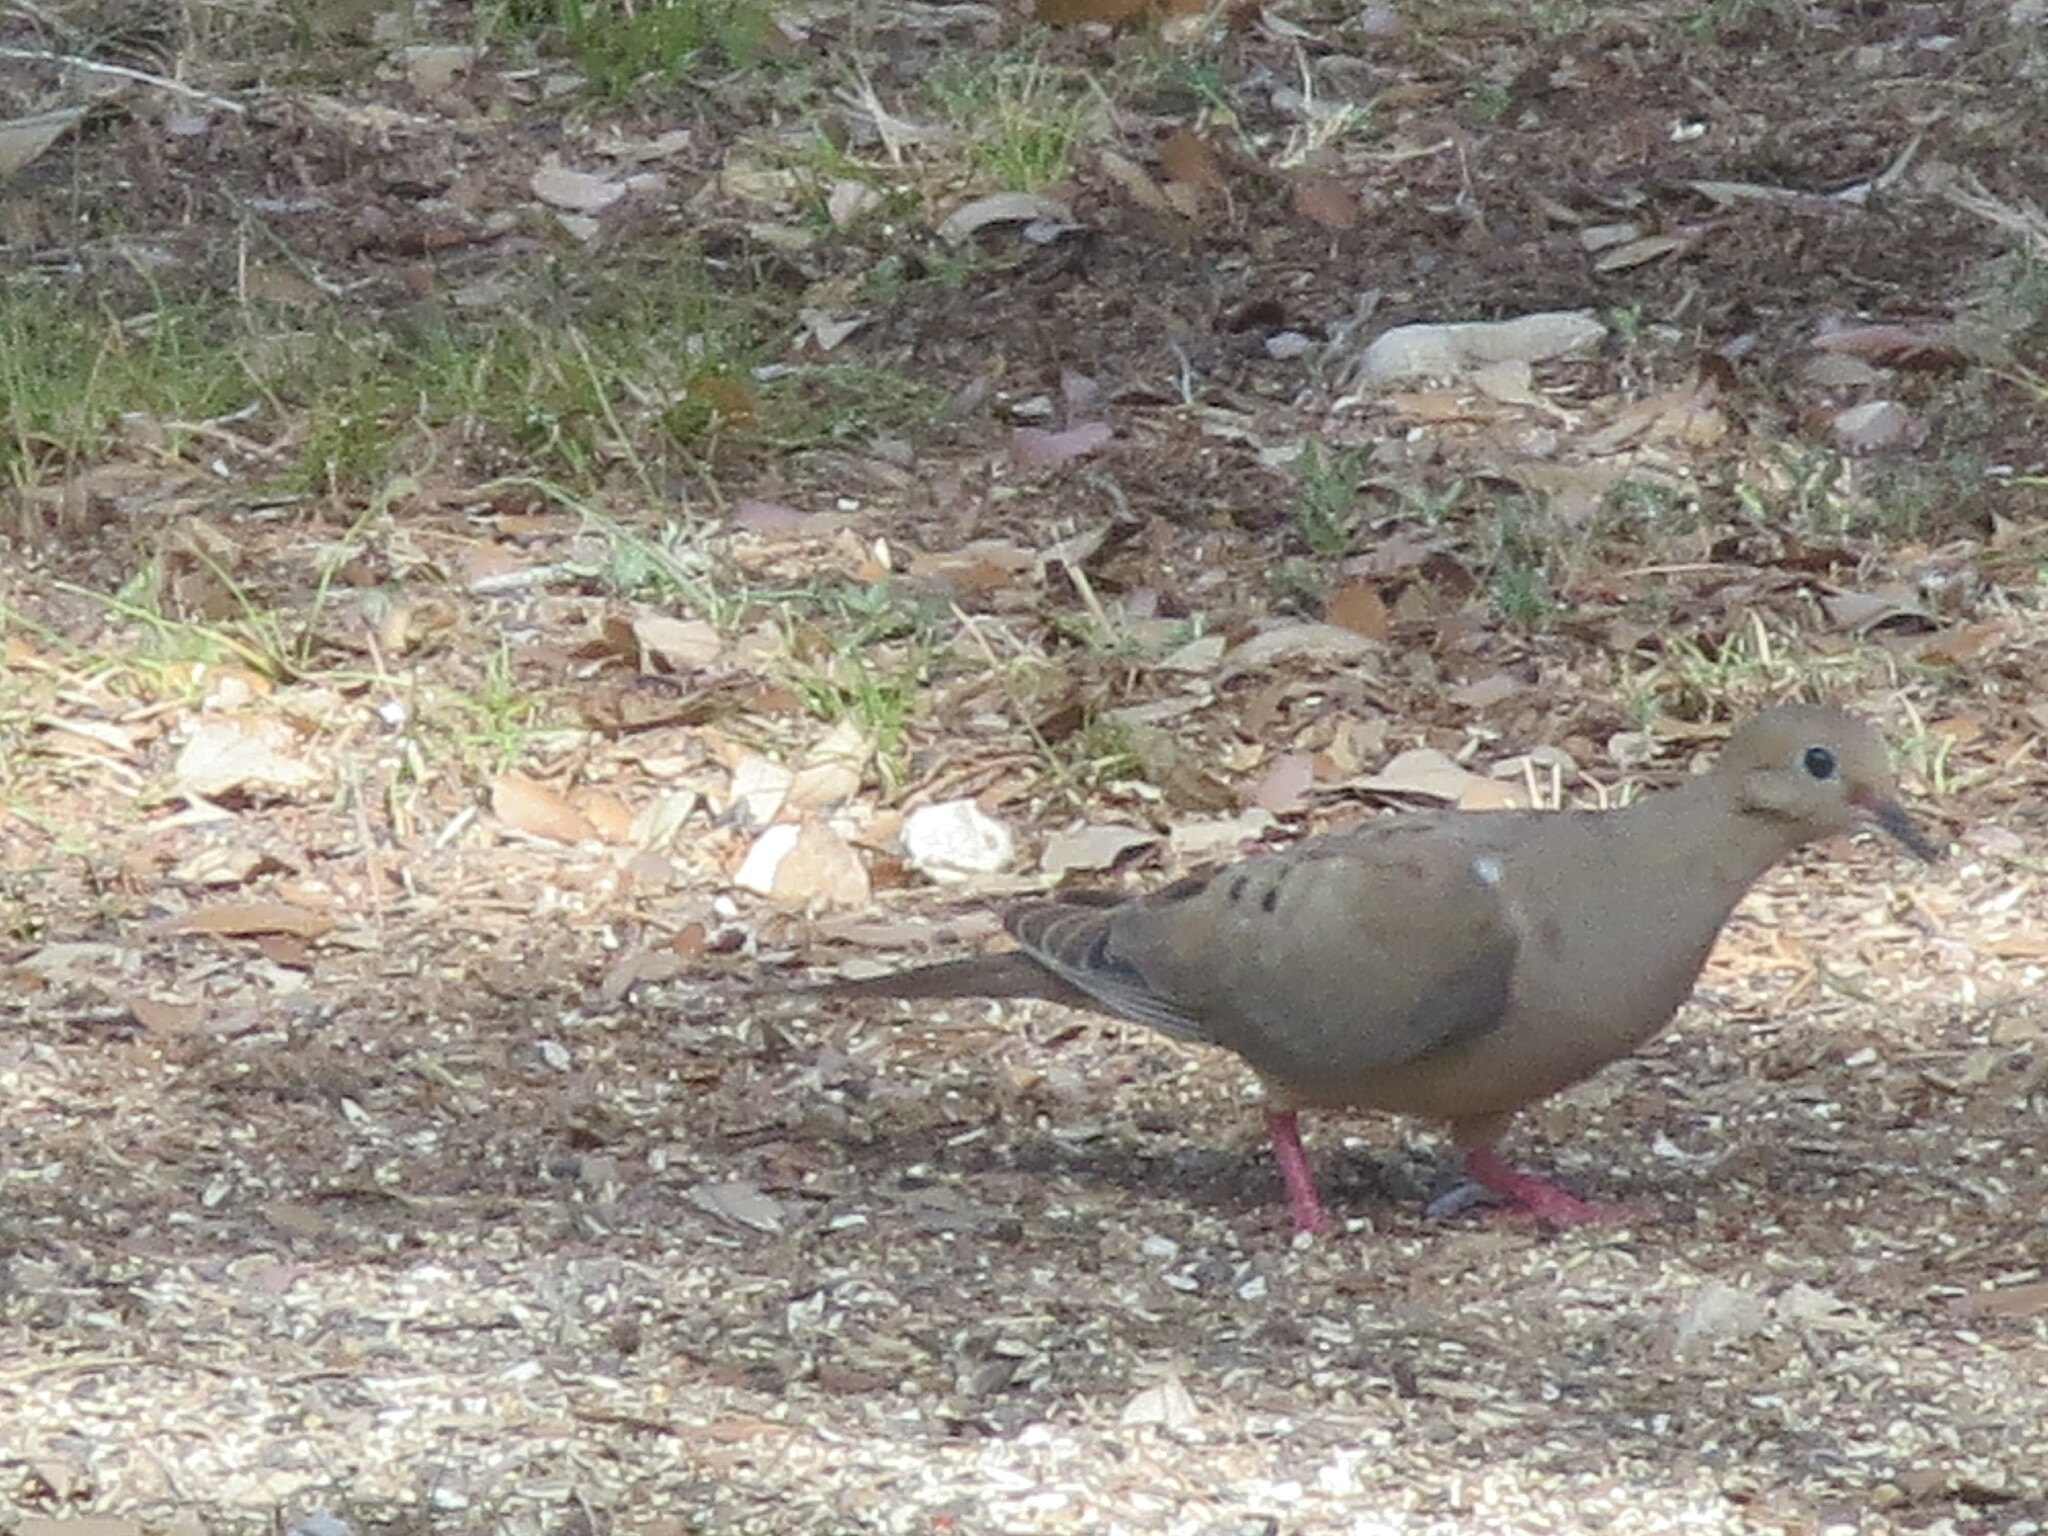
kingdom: Animalia
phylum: Chordata
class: Aves
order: Columbiformes
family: Columbidae
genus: Zenaida
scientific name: Zenaida macroura
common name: Mourning dove
